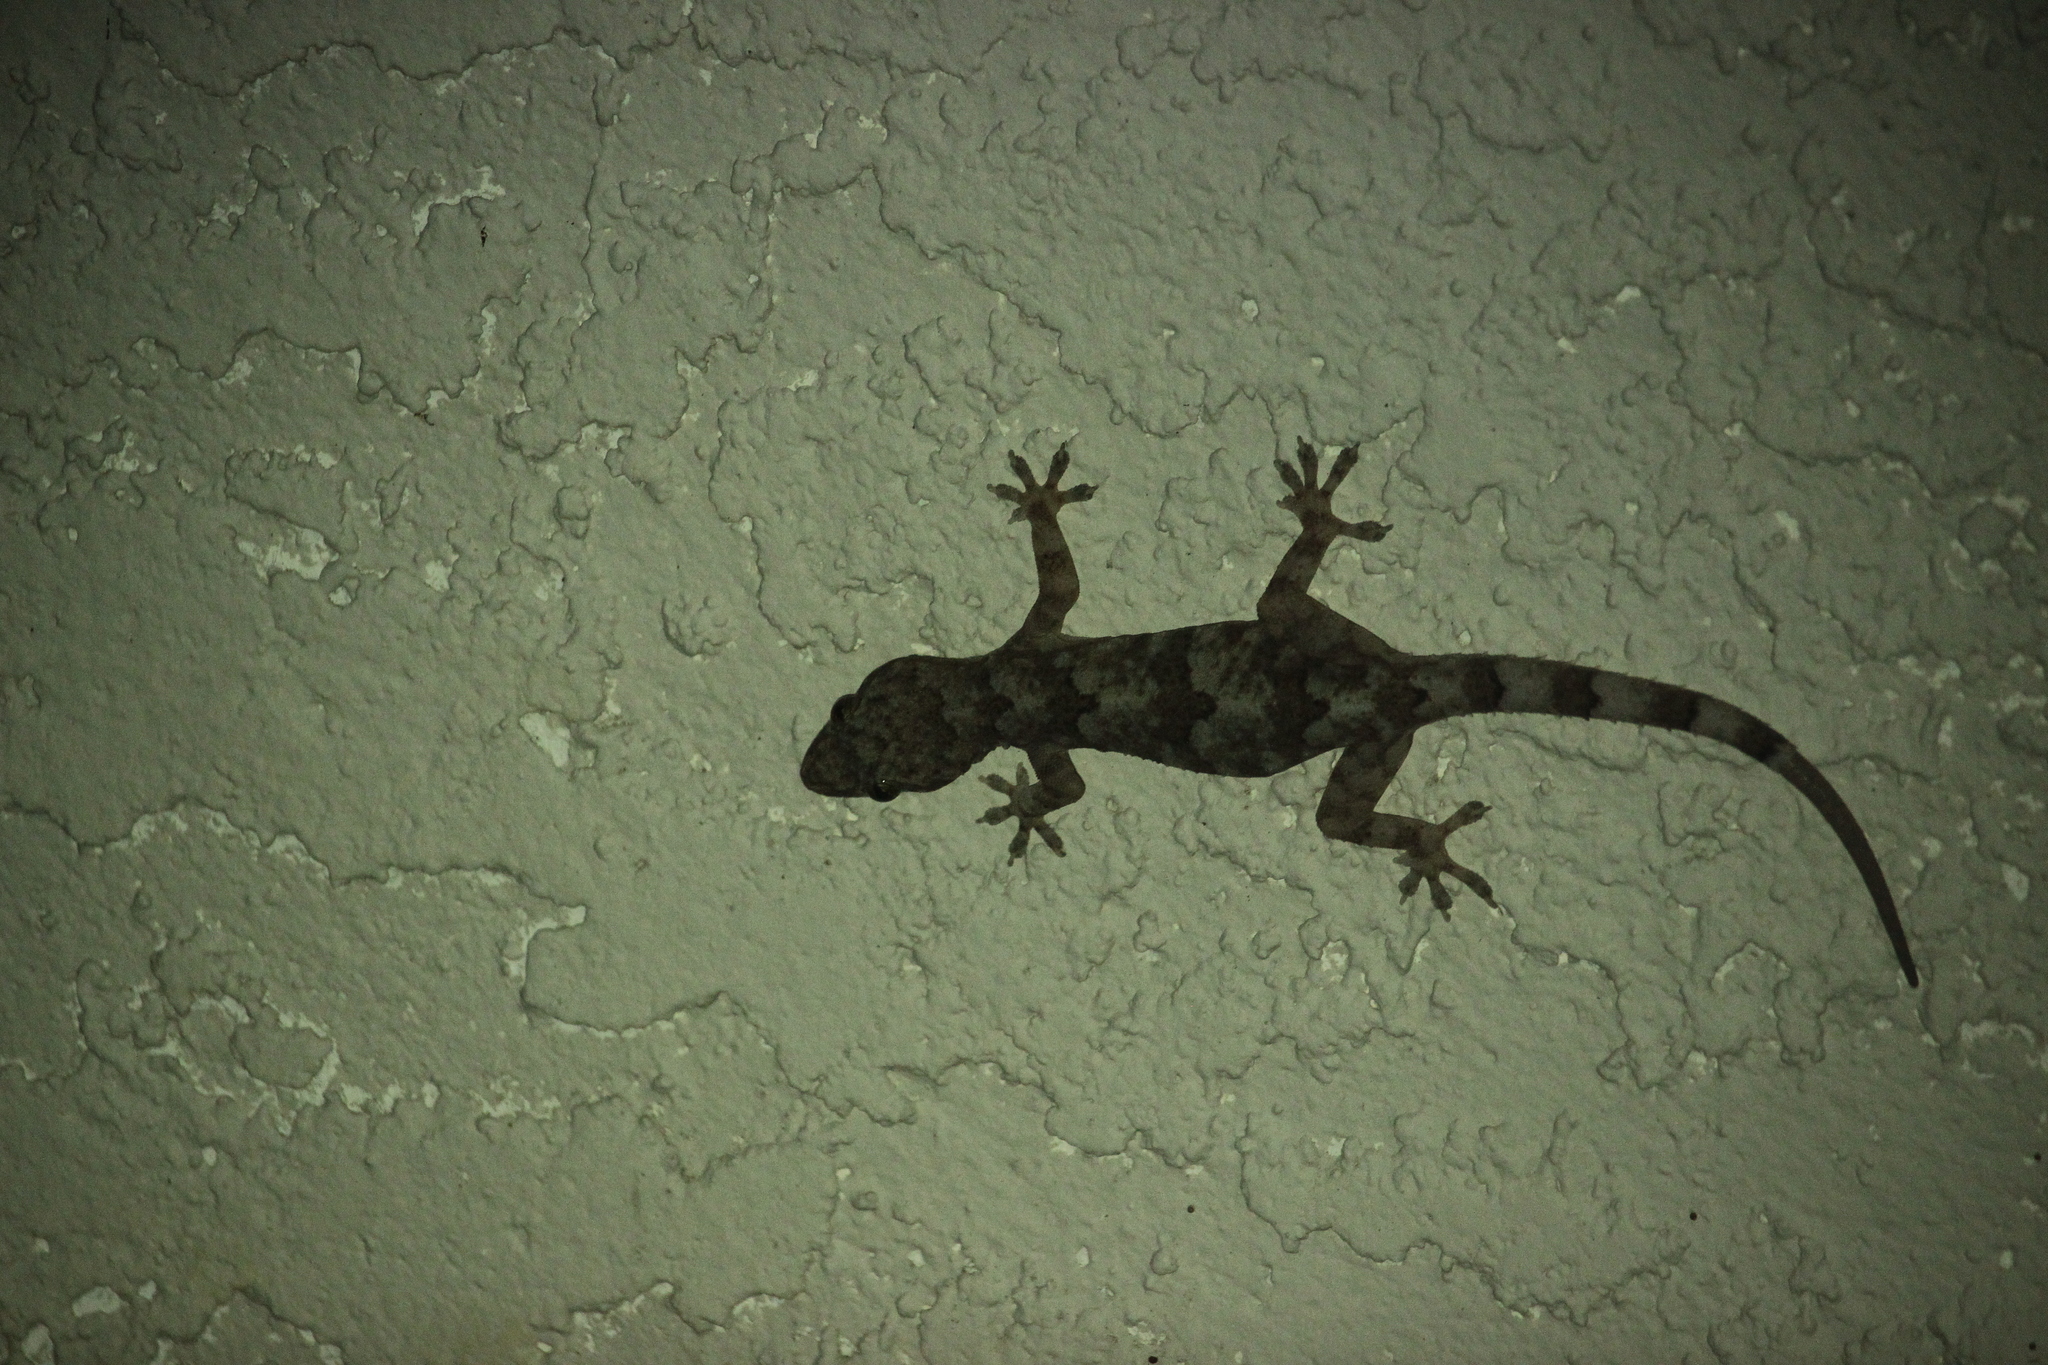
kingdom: Animalia
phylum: Chordata
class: Squamata
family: Gekkonidae
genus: Hemidactylus
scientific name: Hemidactylus mabouia
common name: House gecko
